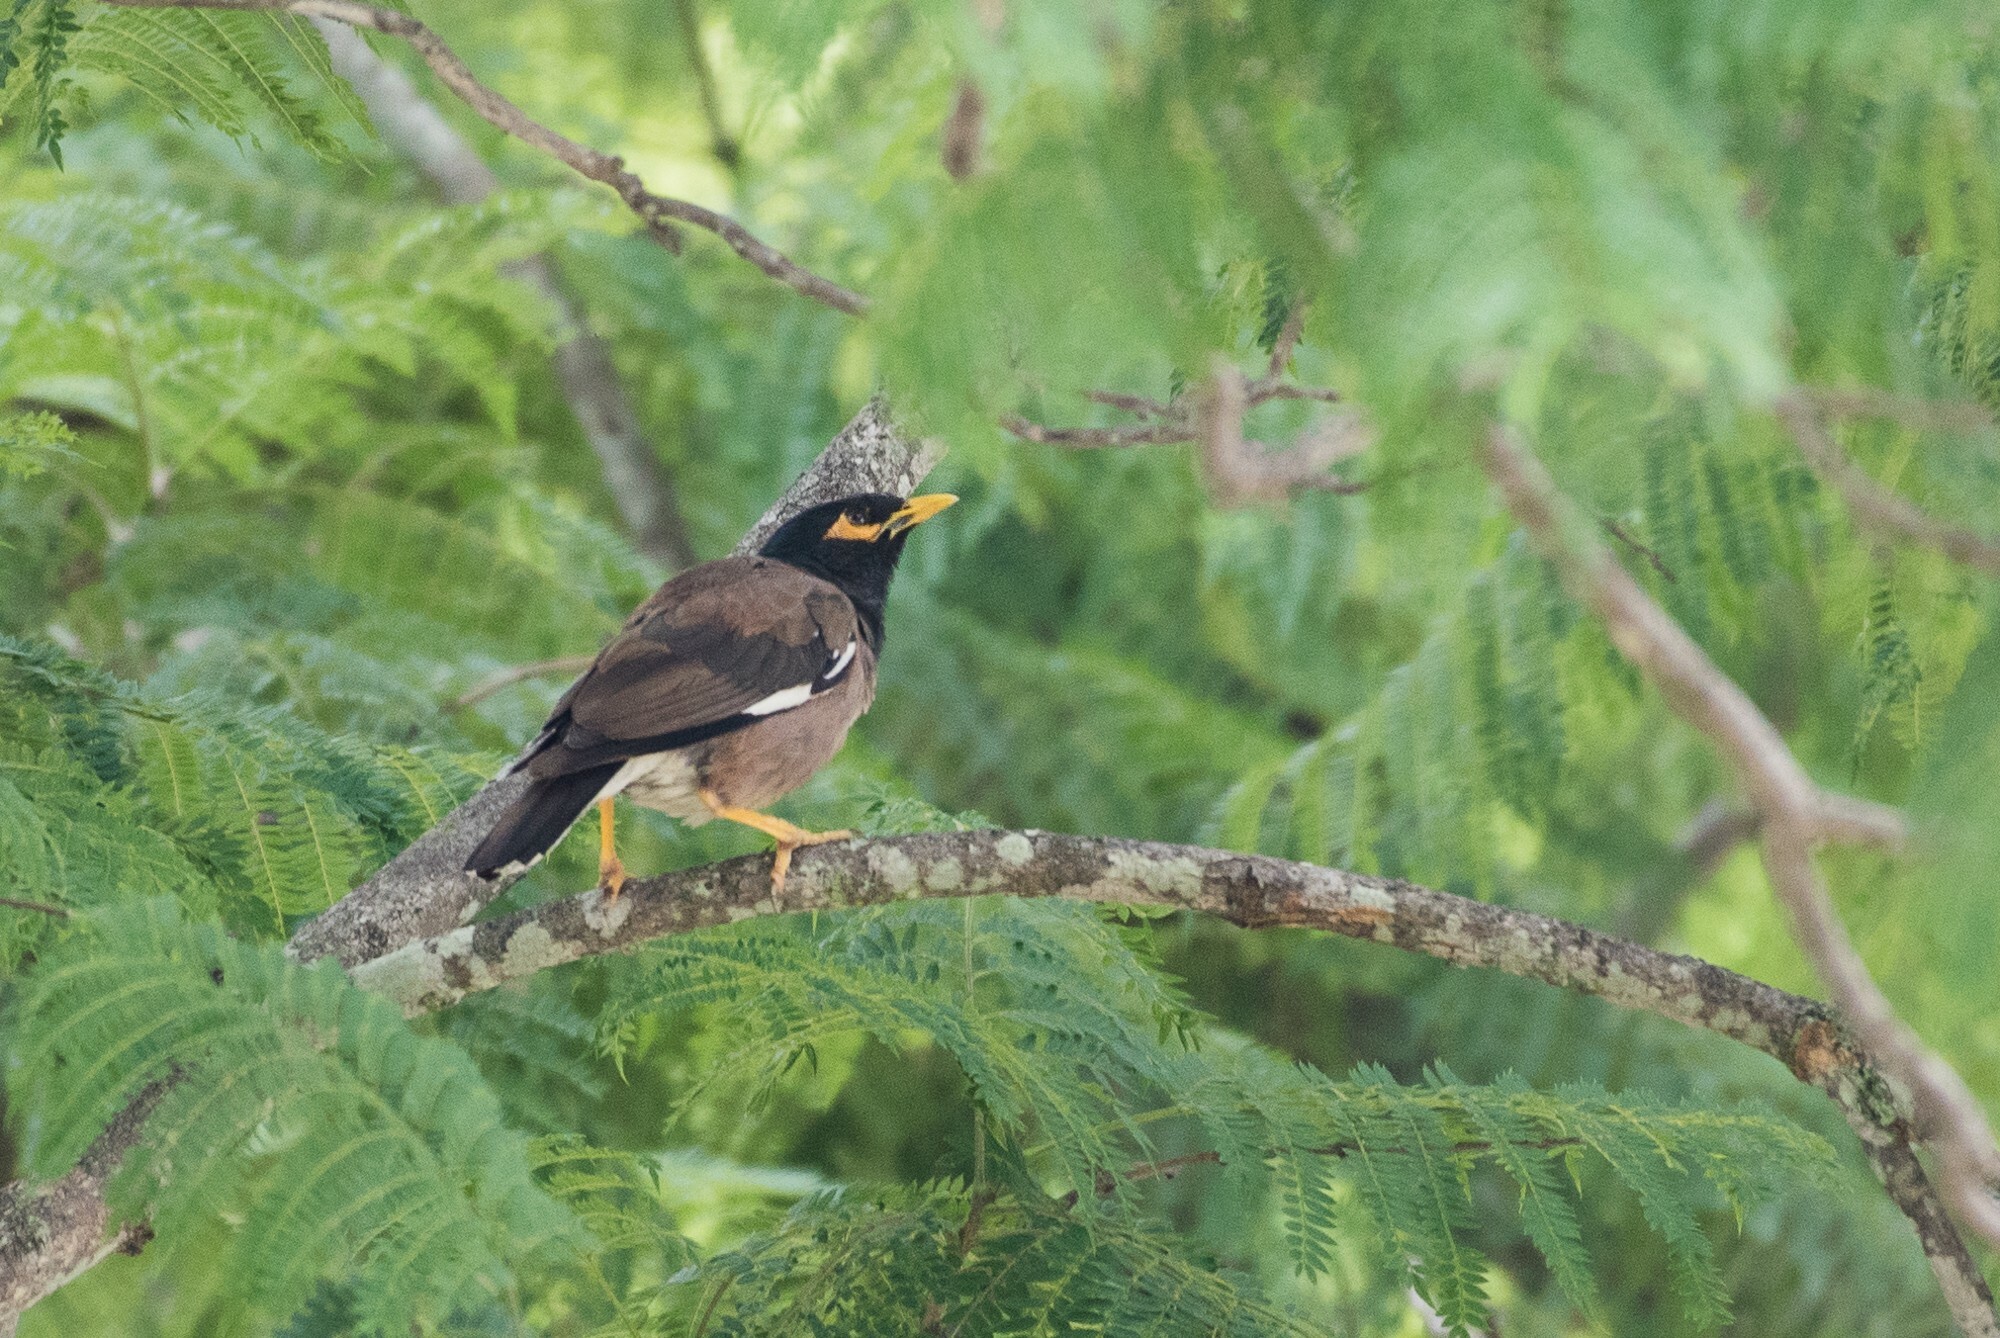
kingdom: Animalia
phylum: Chordata
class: Aves
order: Passeriformes
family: Sturnidae
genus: Acridotheres
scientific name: Acridotheres tristis
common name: Common myna
